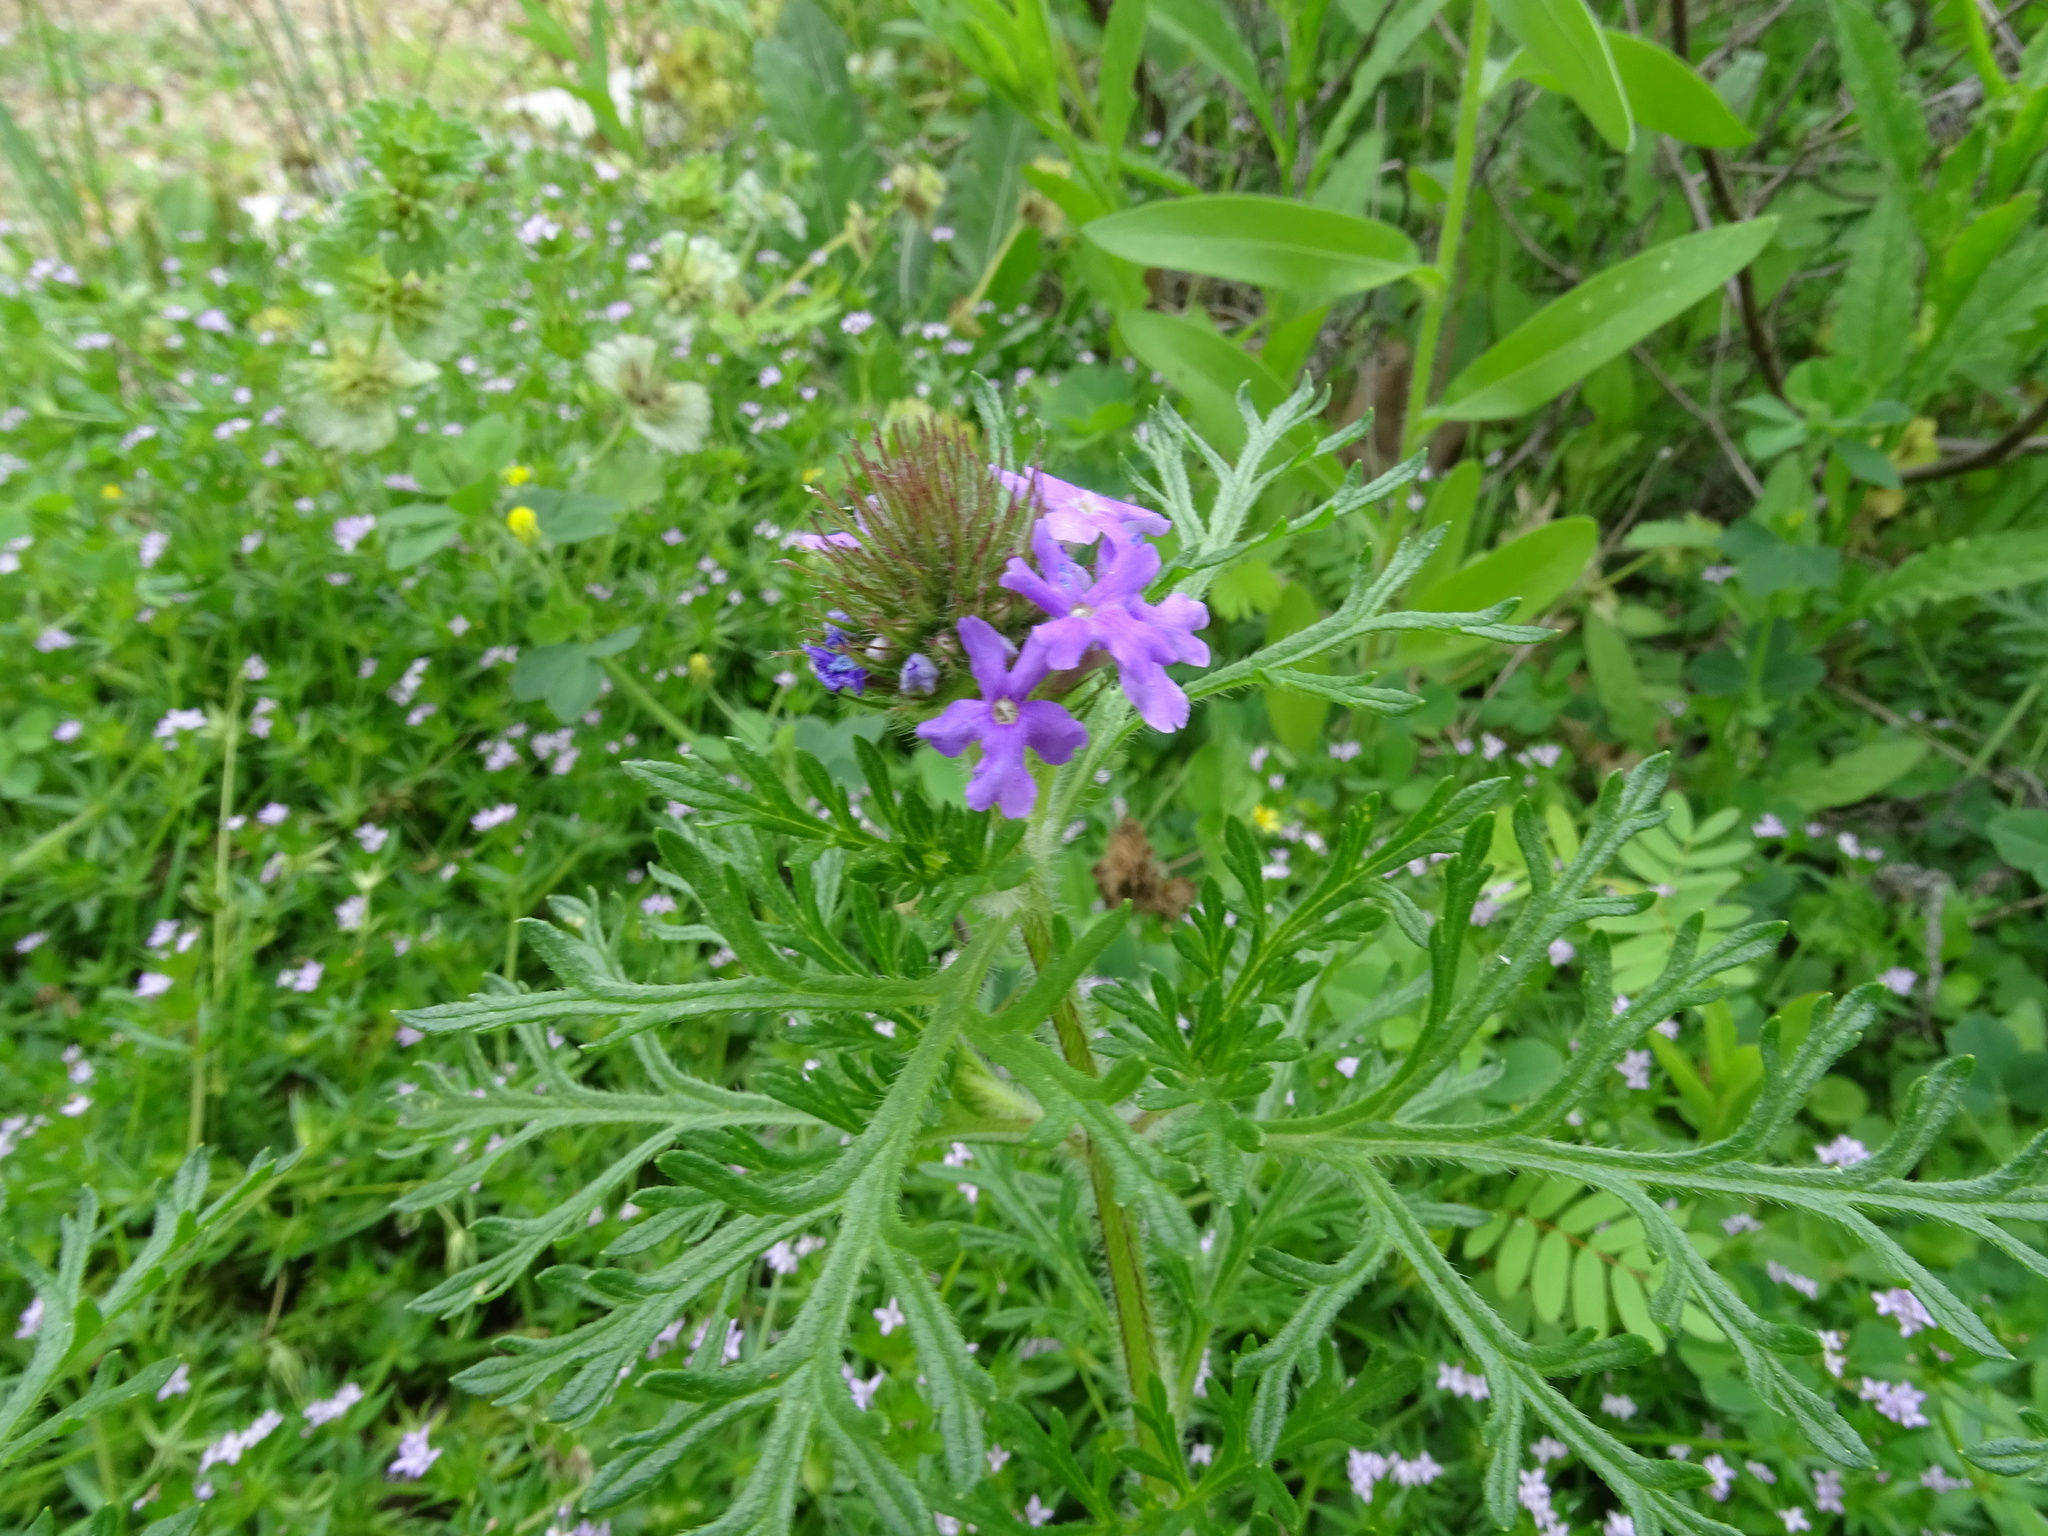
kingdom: Plantae
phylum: Tracheophyta
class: Magnoliopsida
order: Lamiales
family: Verbenaceae
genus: Verbena
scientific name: Verbena bipinnatifida
